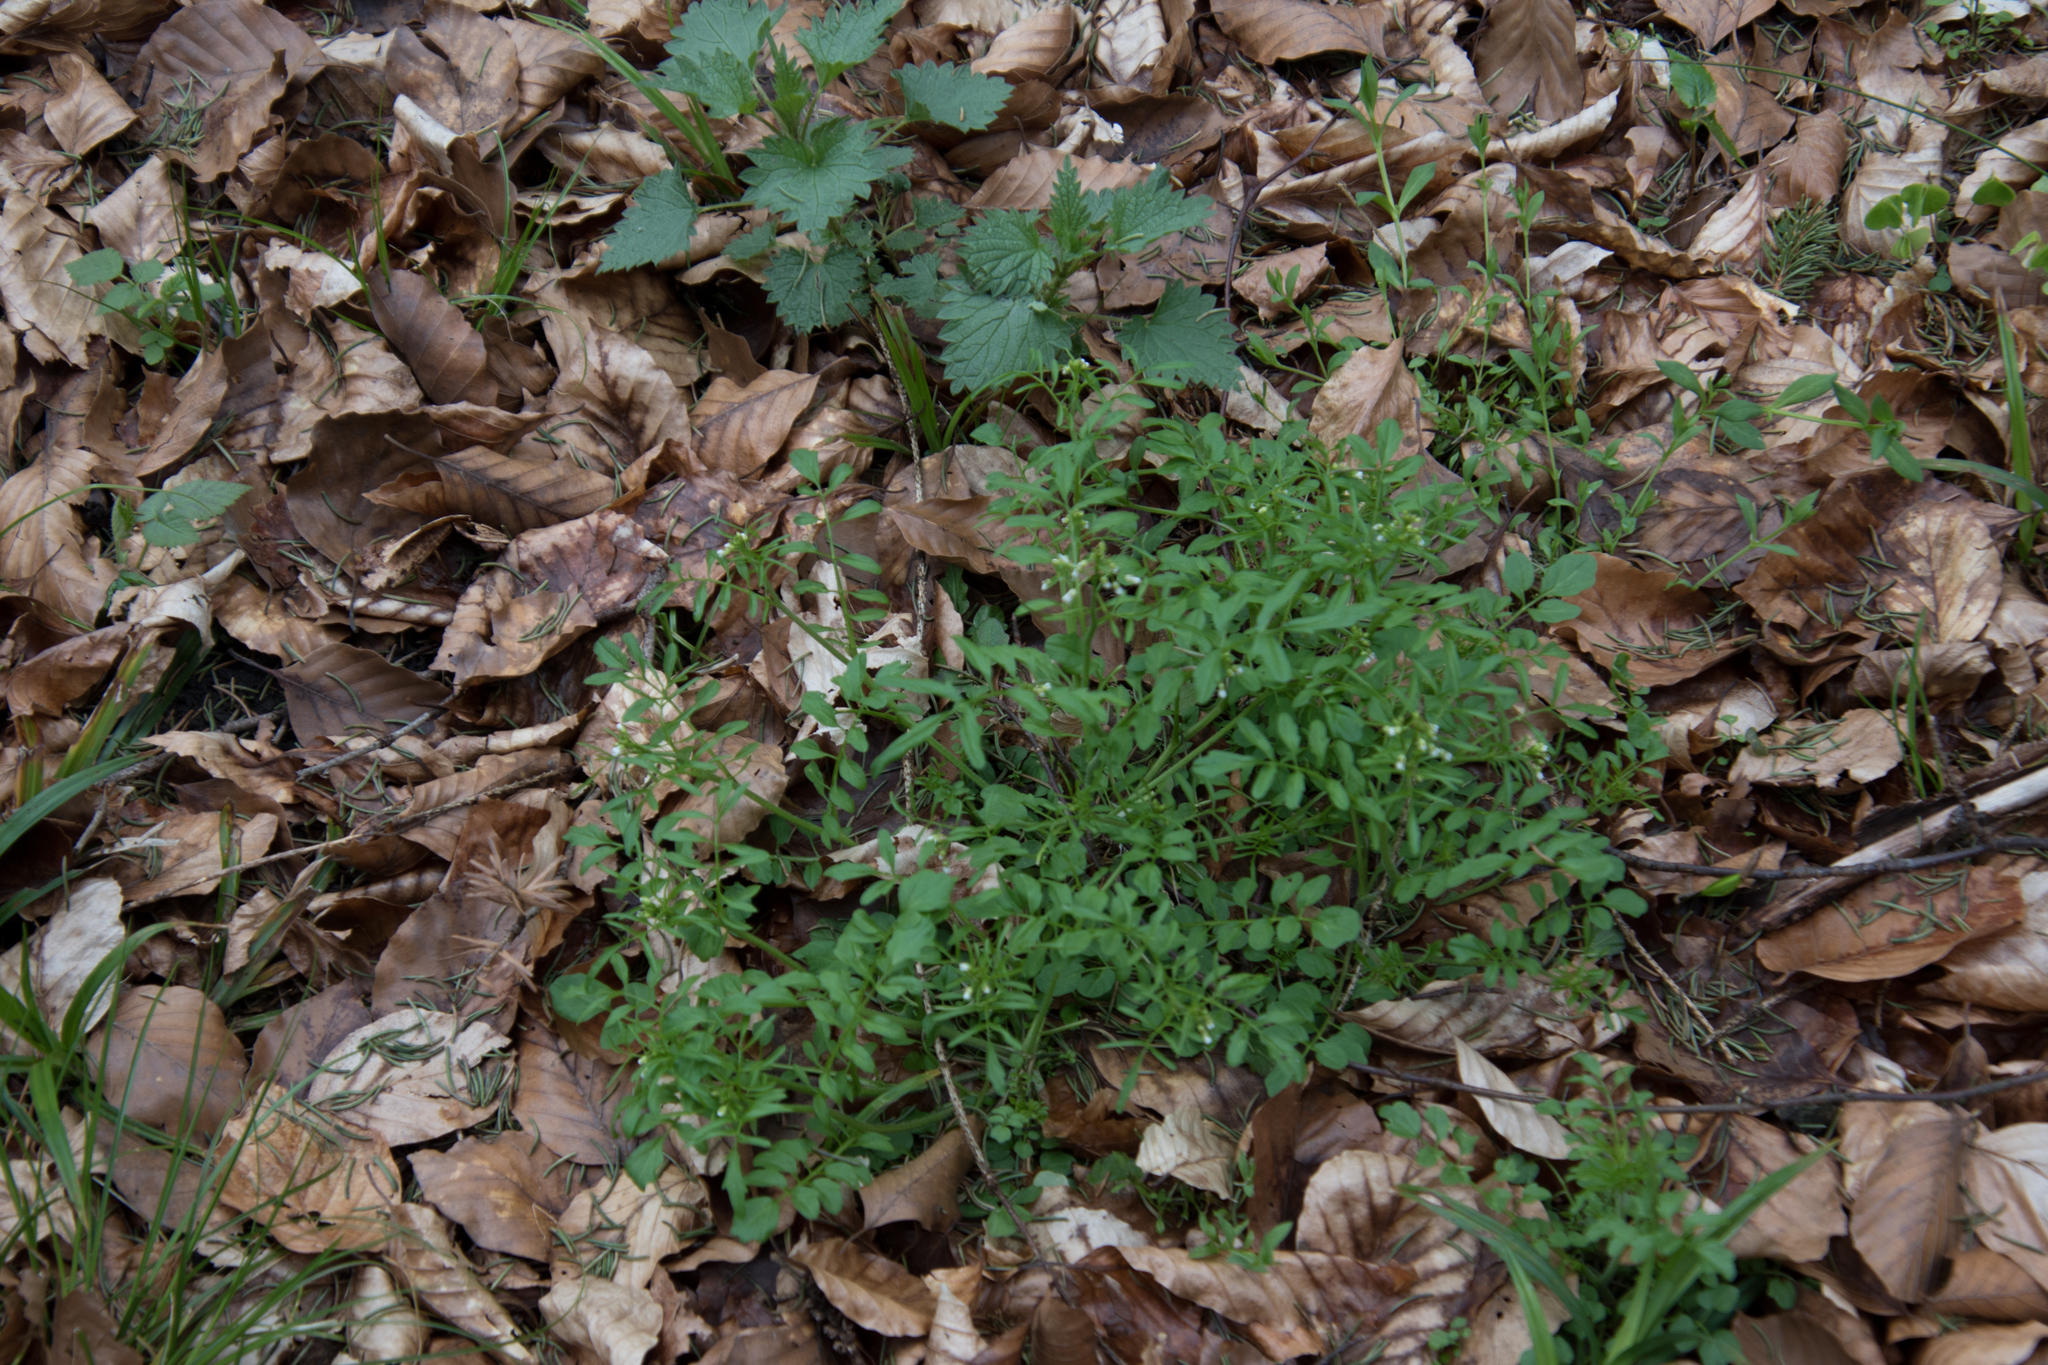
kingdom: Plantae
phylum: Tracheophyta
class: Magnoliopsida
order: Brassicales
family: Brassicaceae
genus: Cardamine
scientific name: Cardamine impatiens
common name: Narrow-leaved bitter-cress
